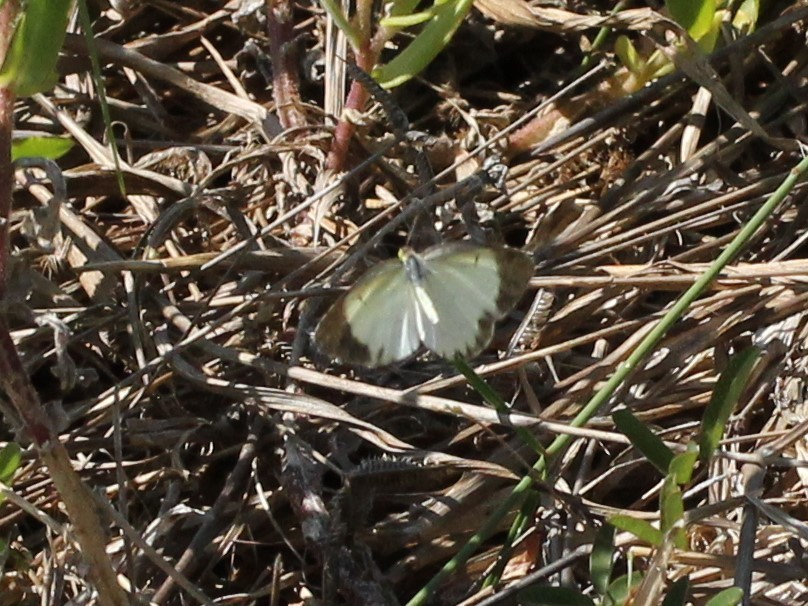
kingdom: Animalia
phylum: Arthropoda
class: Insecta
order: Lepidoptera
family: Pieridae
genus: Pyrisitia
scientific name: Pyrisitia lisa
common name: Little yellow
